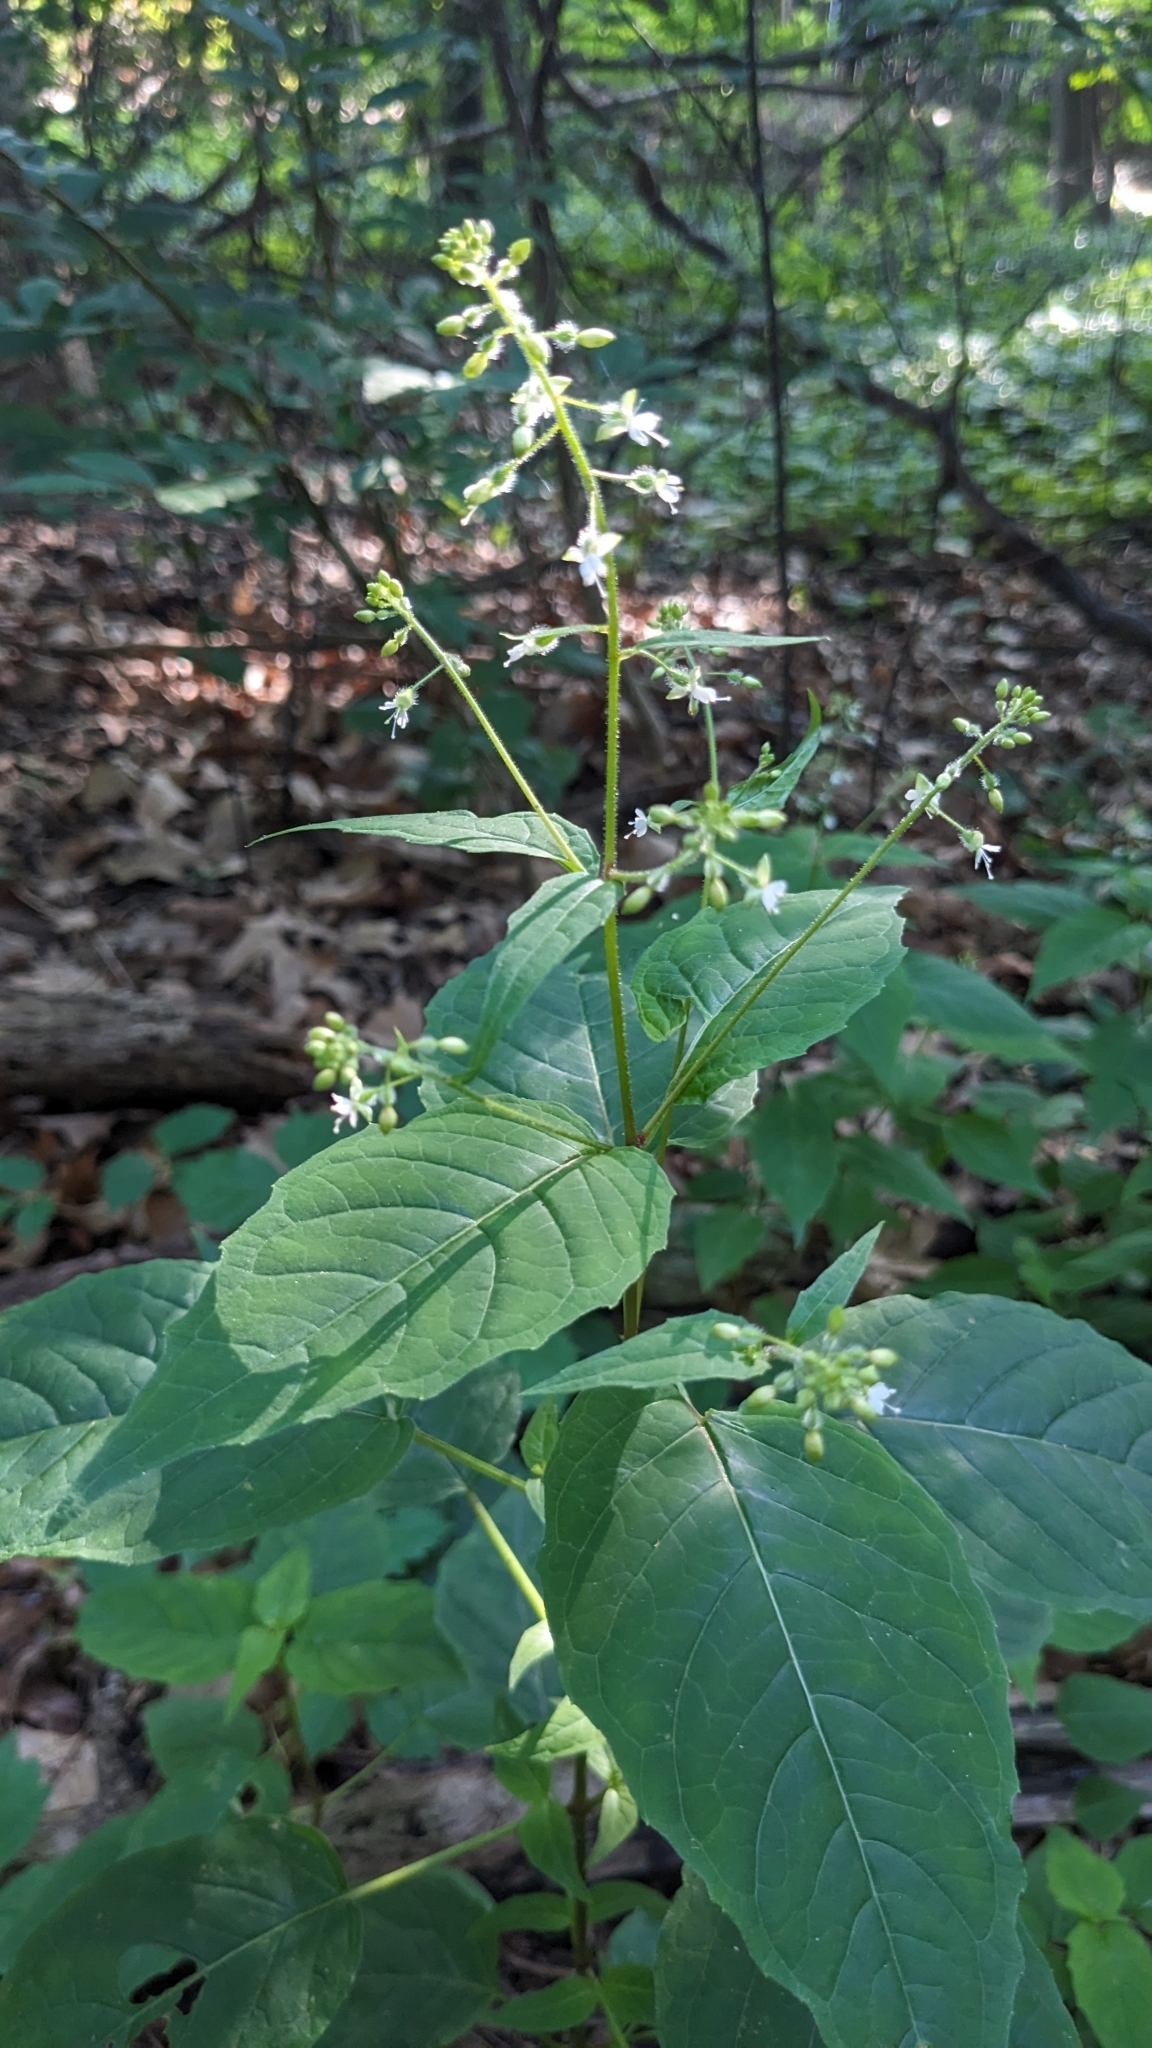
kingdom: Plantae
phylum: Tracheophyta
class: Magnoliopsida
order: Myrtales
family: Onagraceae
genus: Circaea
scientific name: Circaea canadensis
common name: Broad-leaved enchanter's nightshade
